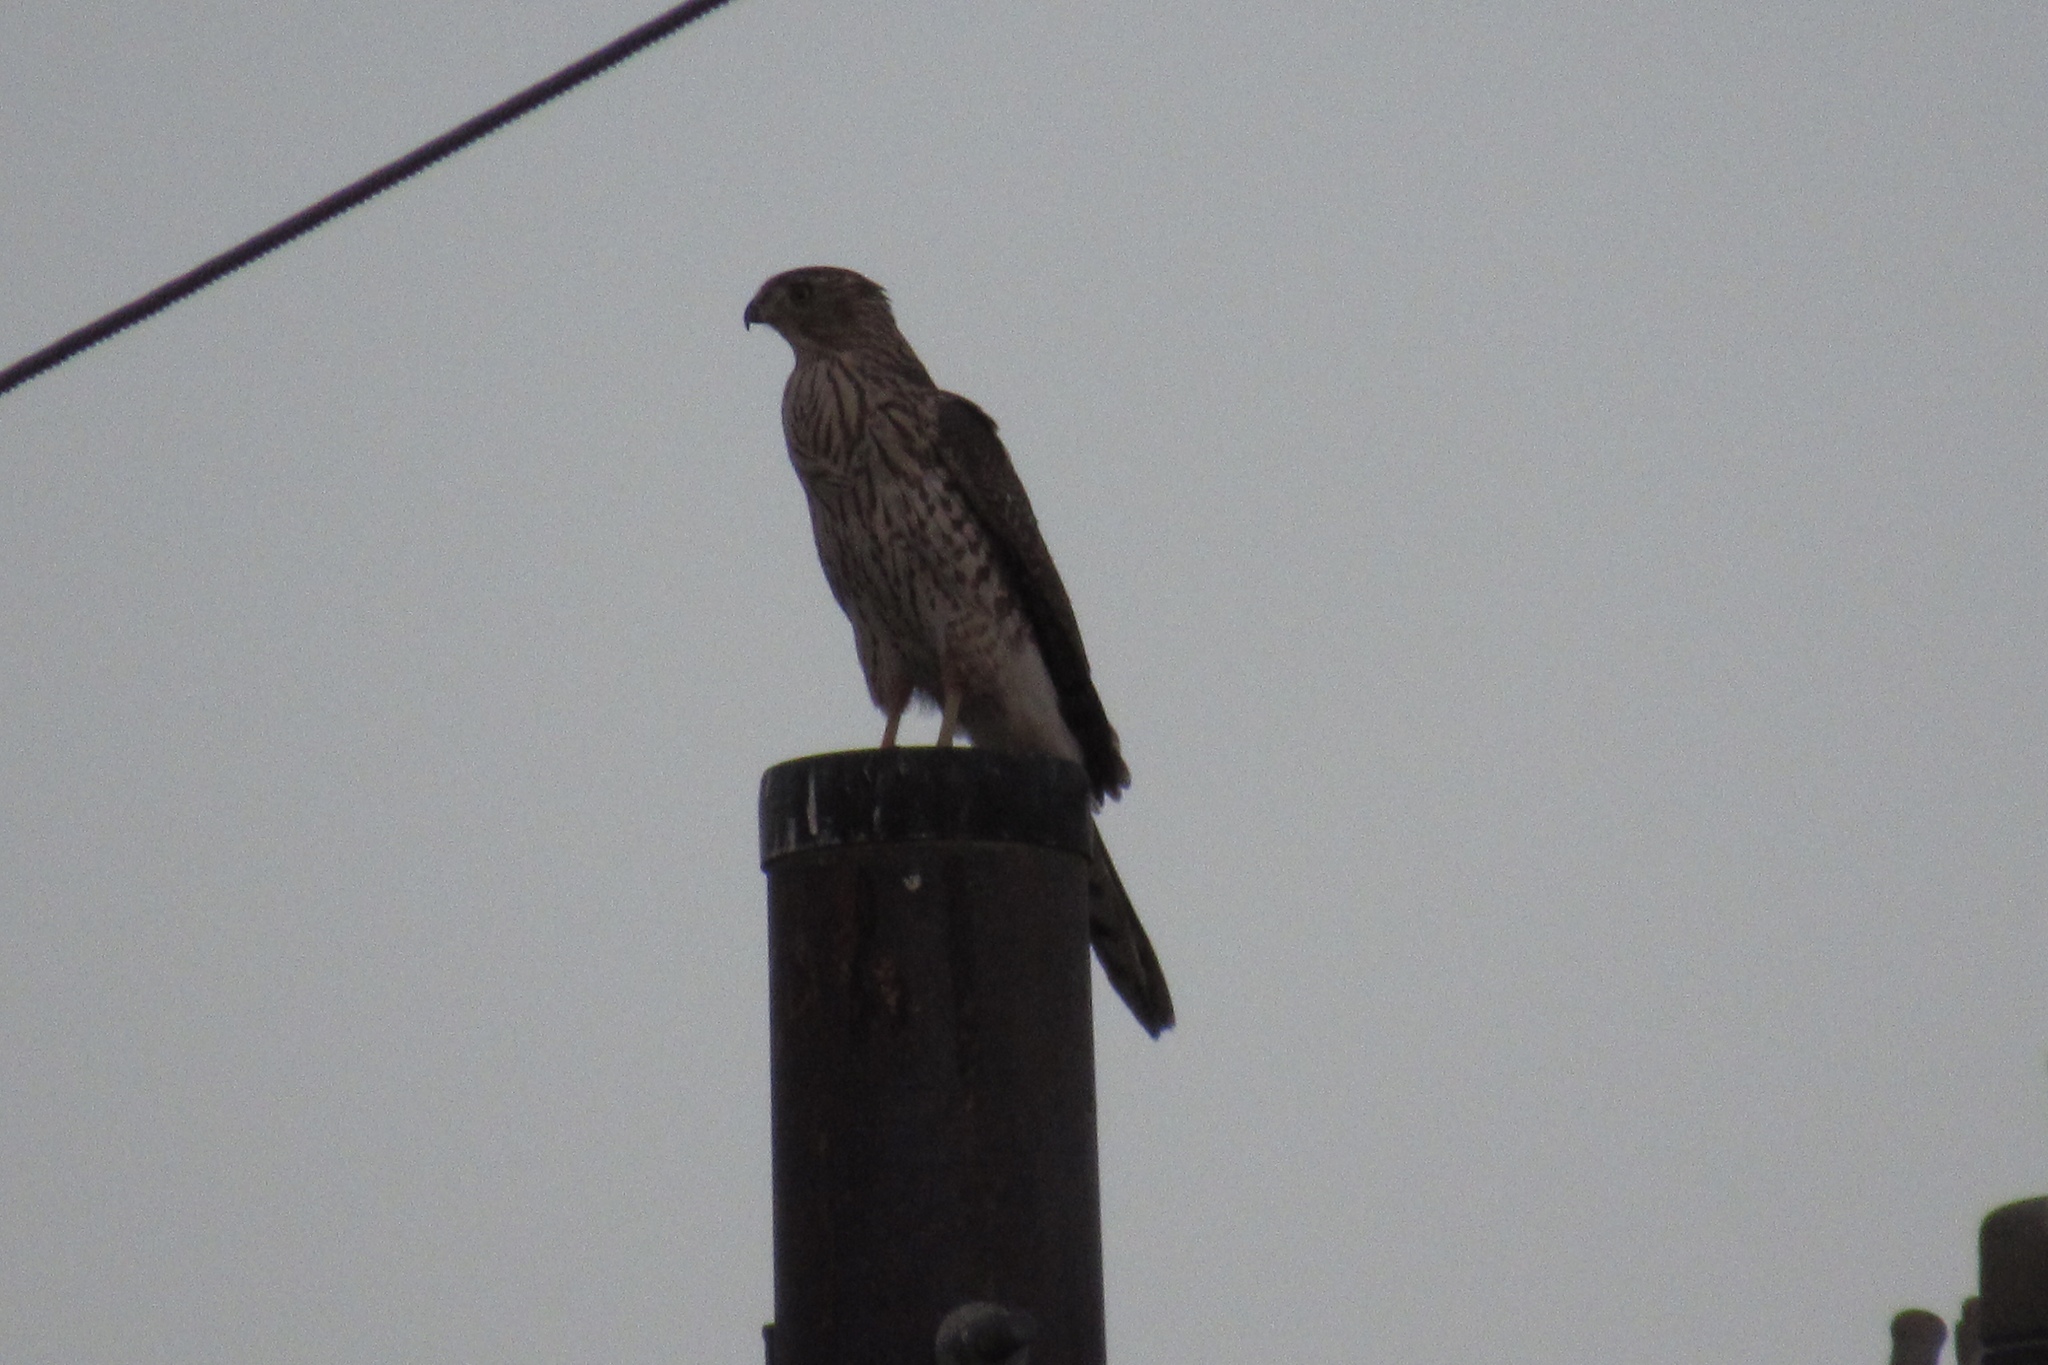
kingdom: Animalia
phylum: Chordata
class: Aves
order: Accipitriformes
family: Accipitridae
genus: Accipiter
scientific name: Accipiter cooperii
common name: Cooper's hawk
